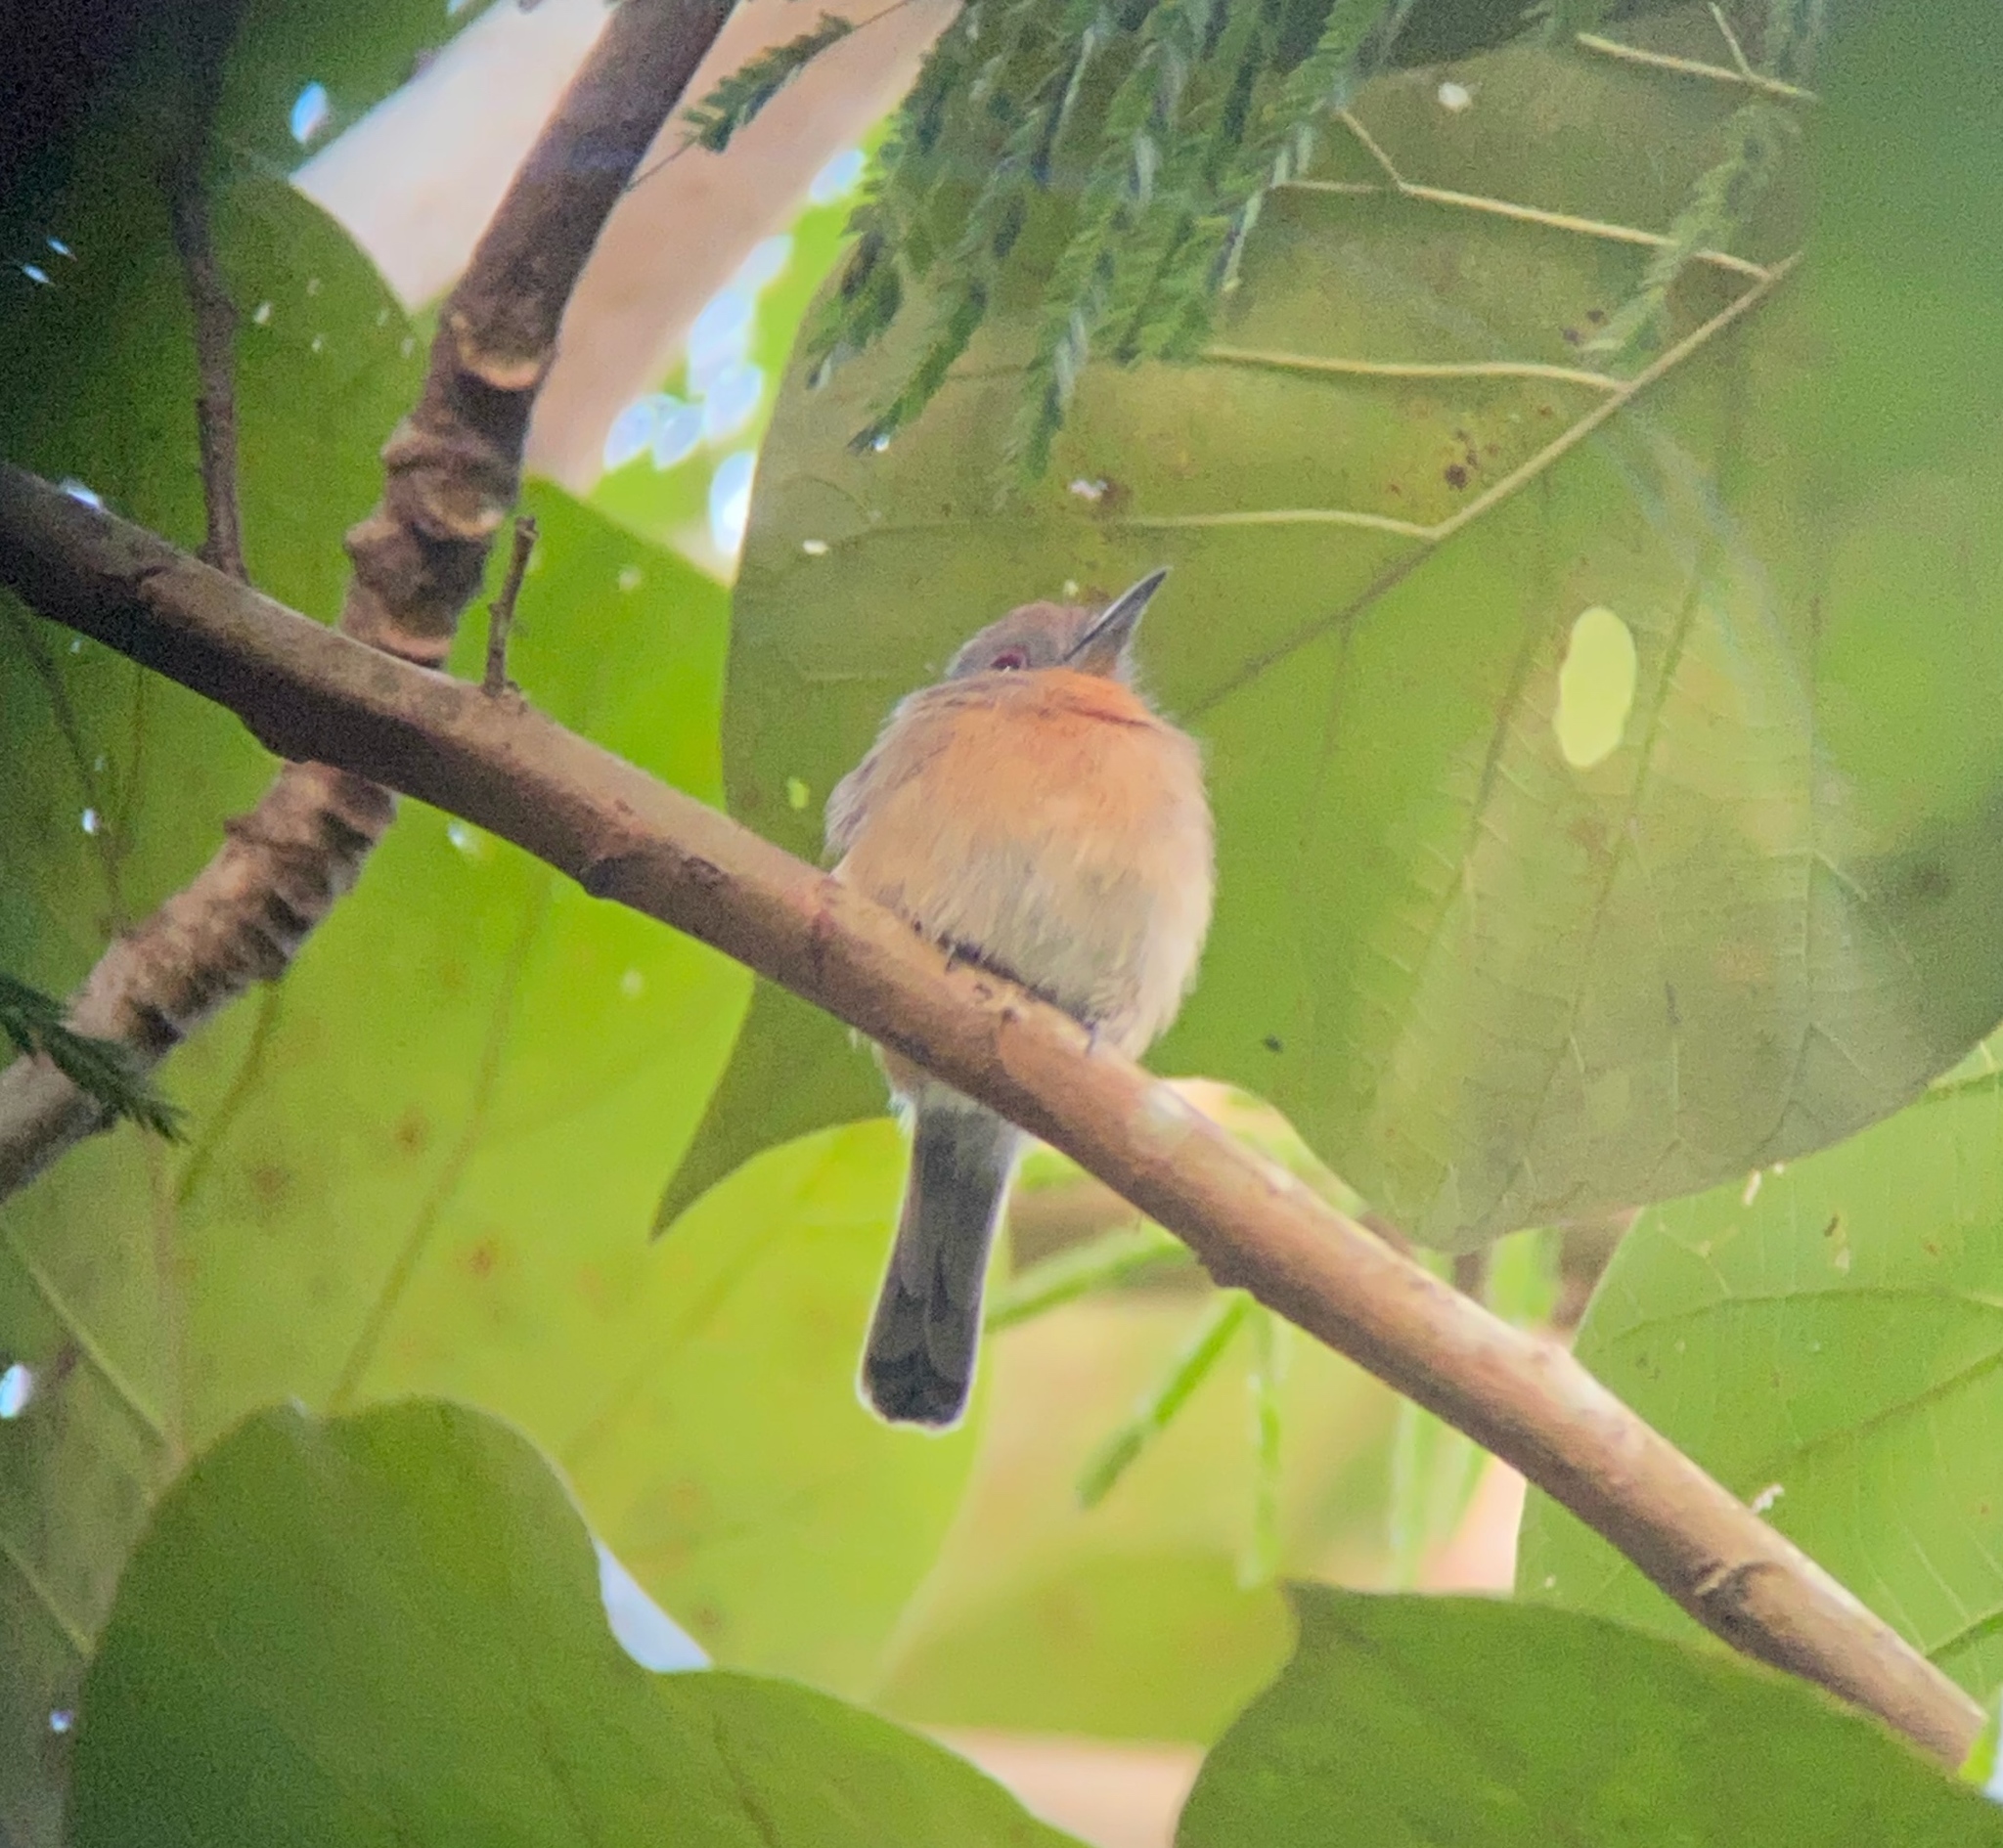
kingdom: Animalia
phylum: Chordata
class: Aves
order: Piciformes
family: Bucconidae
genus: Nonnula
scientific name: Nonnula frontalis
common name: Grey-cheeked nunlet
